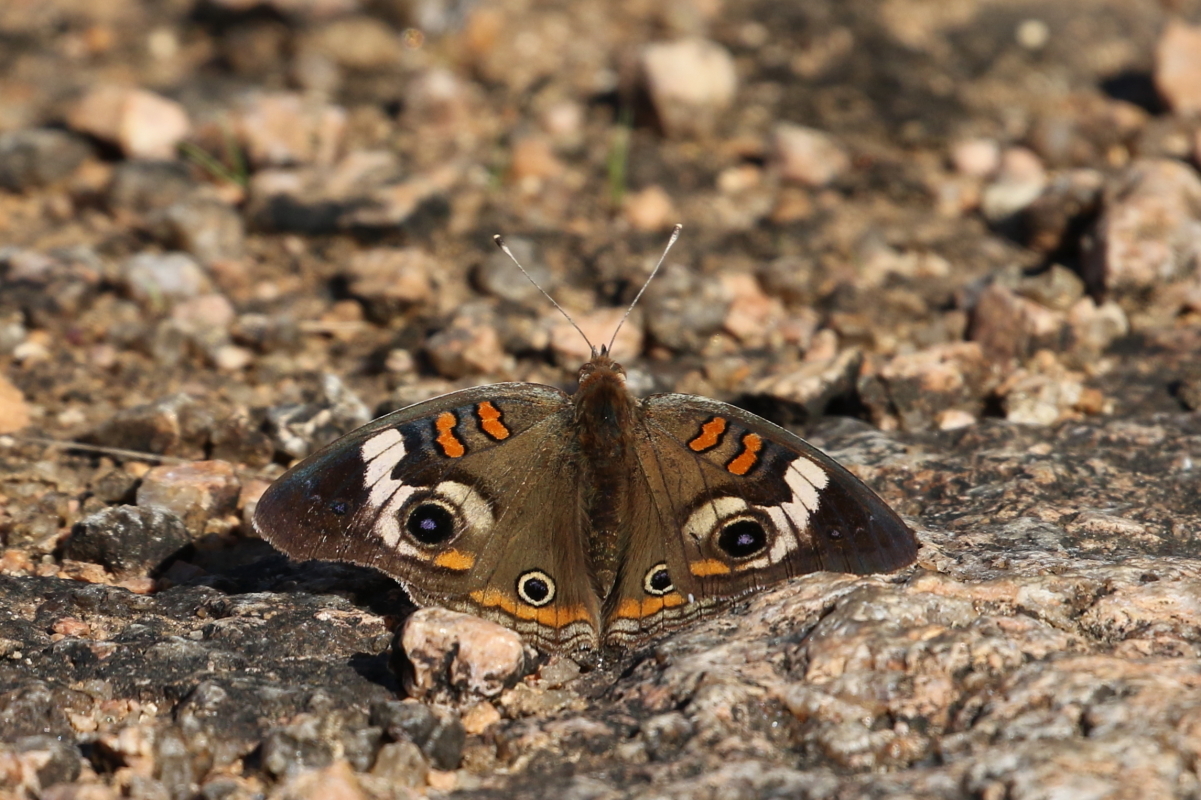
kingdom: Animalia
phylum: Arthropoda
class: Insecta
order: Lepidoptera
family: Nymphalidae
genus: Junonia
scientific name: Junonia coenia
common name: Common buckeye
